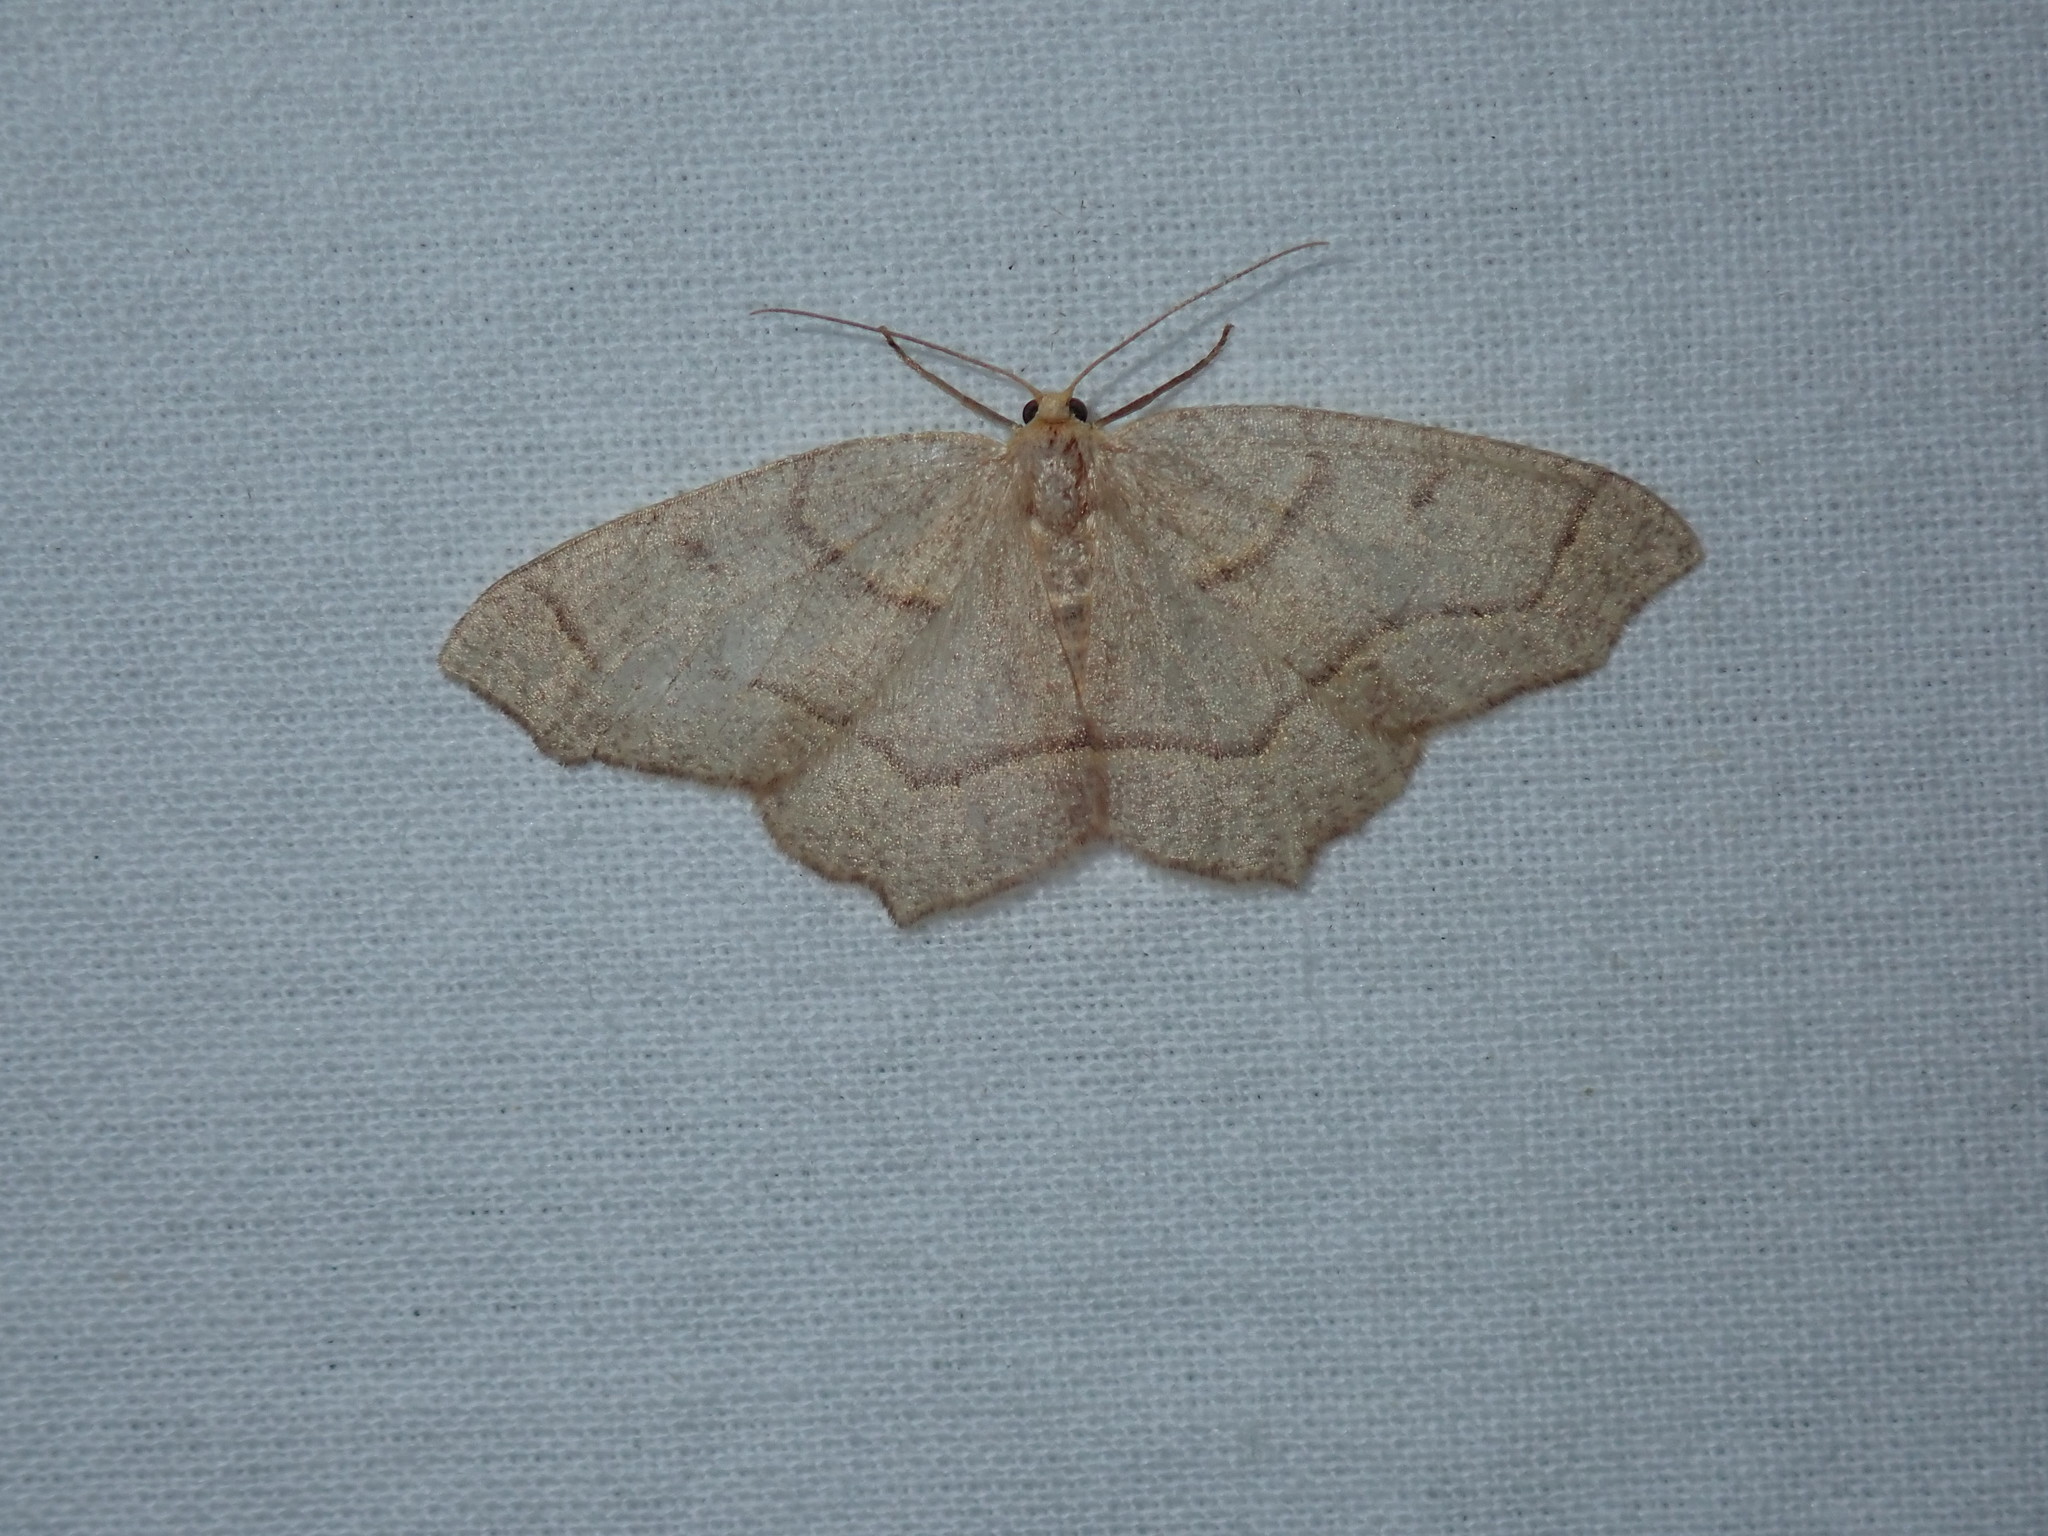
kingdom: Animalia
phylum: Arthropoda
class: Insecta
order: Lepidoptera
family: Geometridae
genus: Lambdina
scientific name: Lambdina fiscellaria
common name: Hemlock looper
